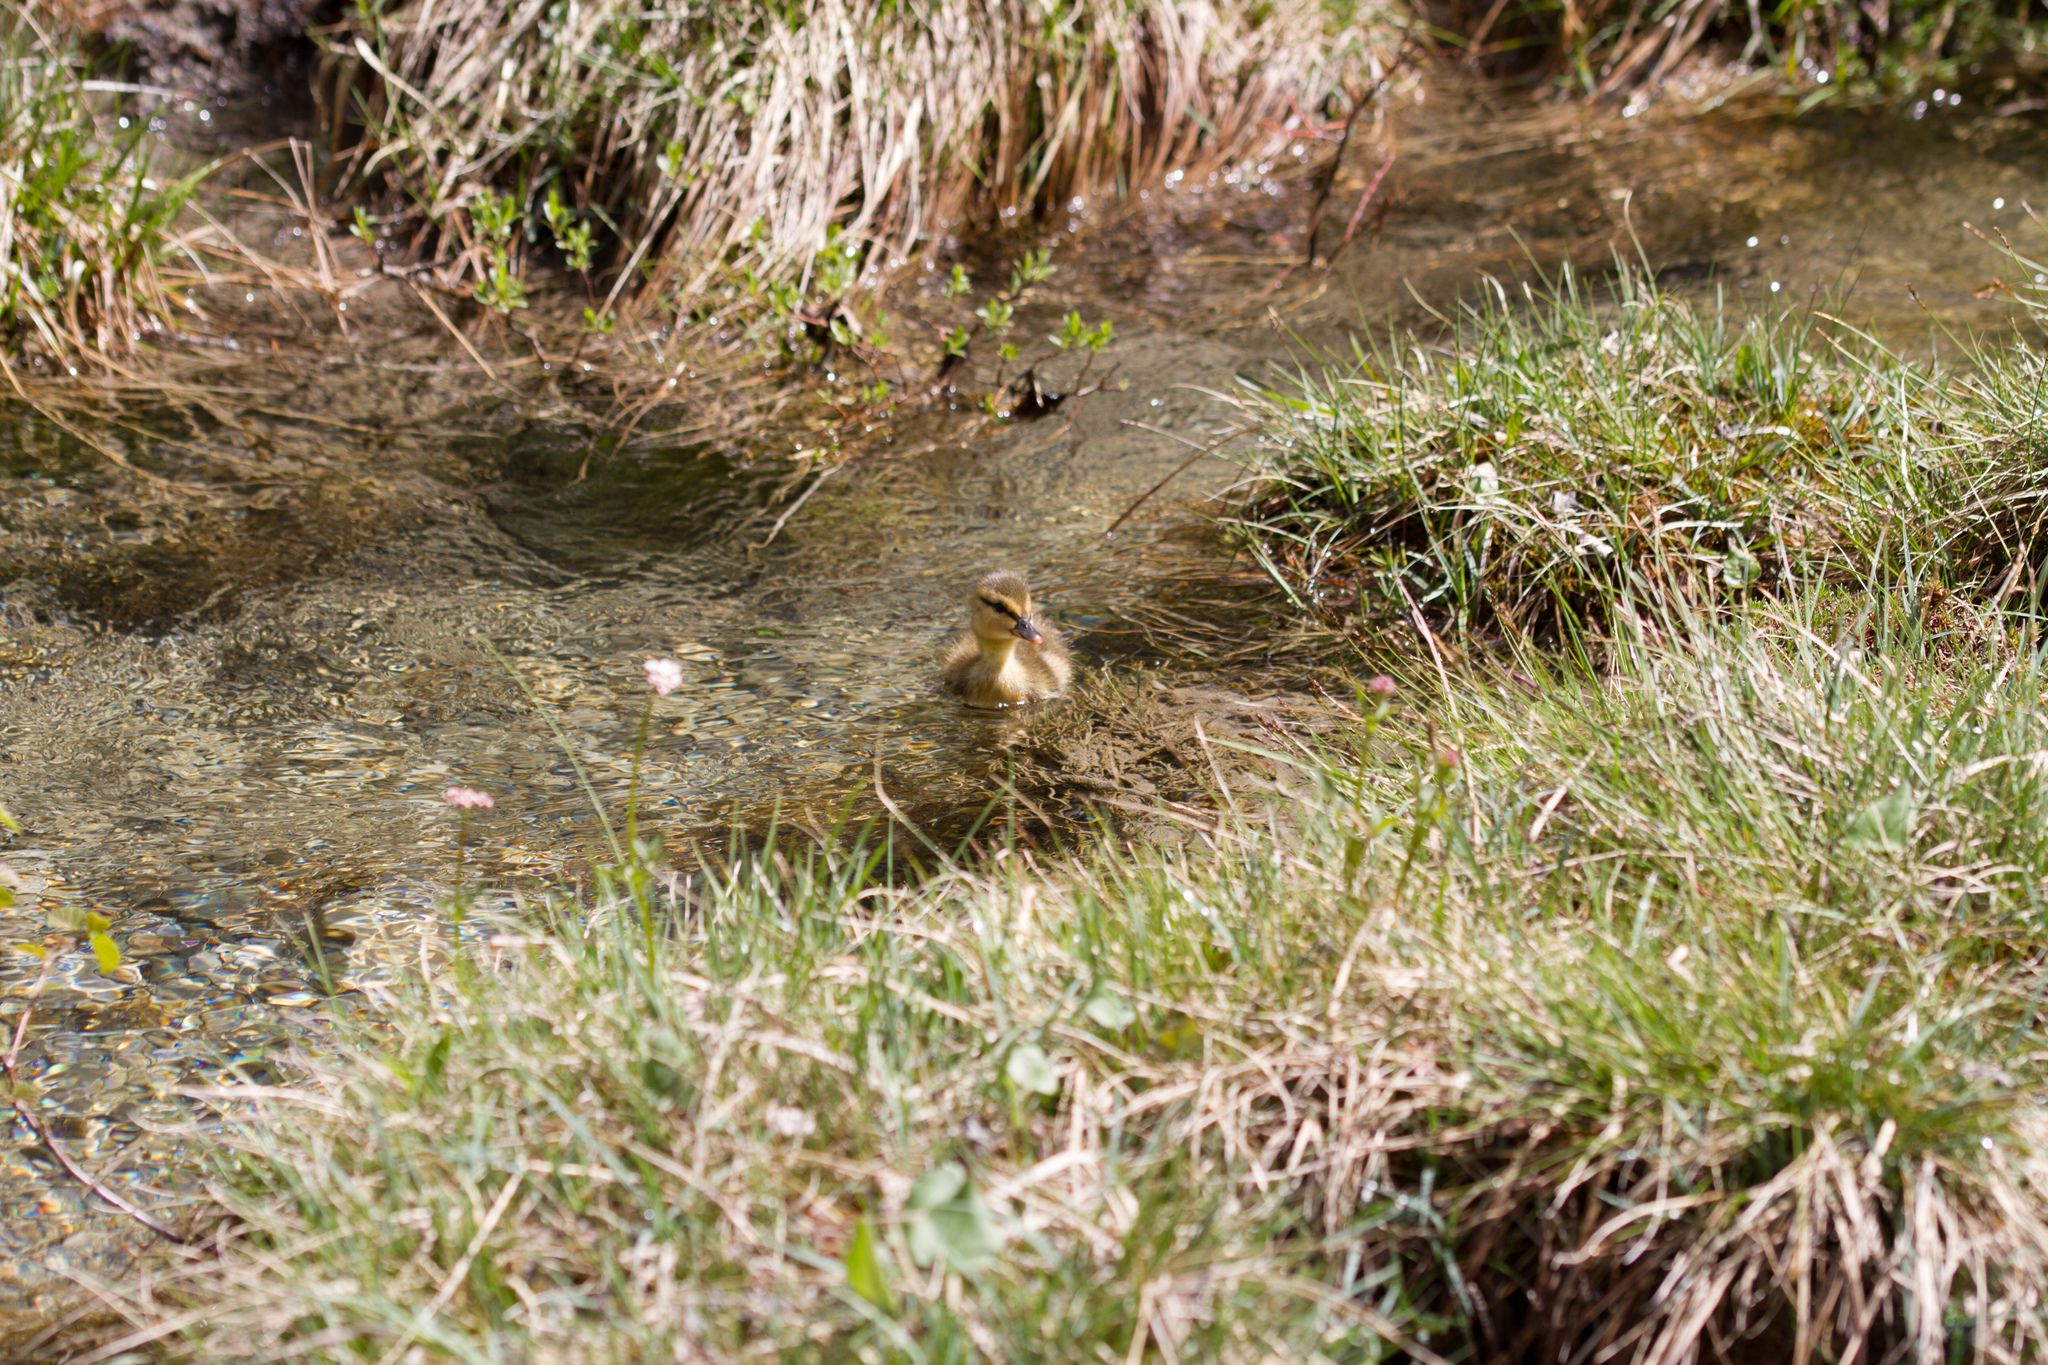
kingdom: Animalia
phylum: Chordata
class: Aves
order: Anseriformes
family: Anatidae
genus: Anas
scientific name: Anas platyrhynchos
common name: Mallard
